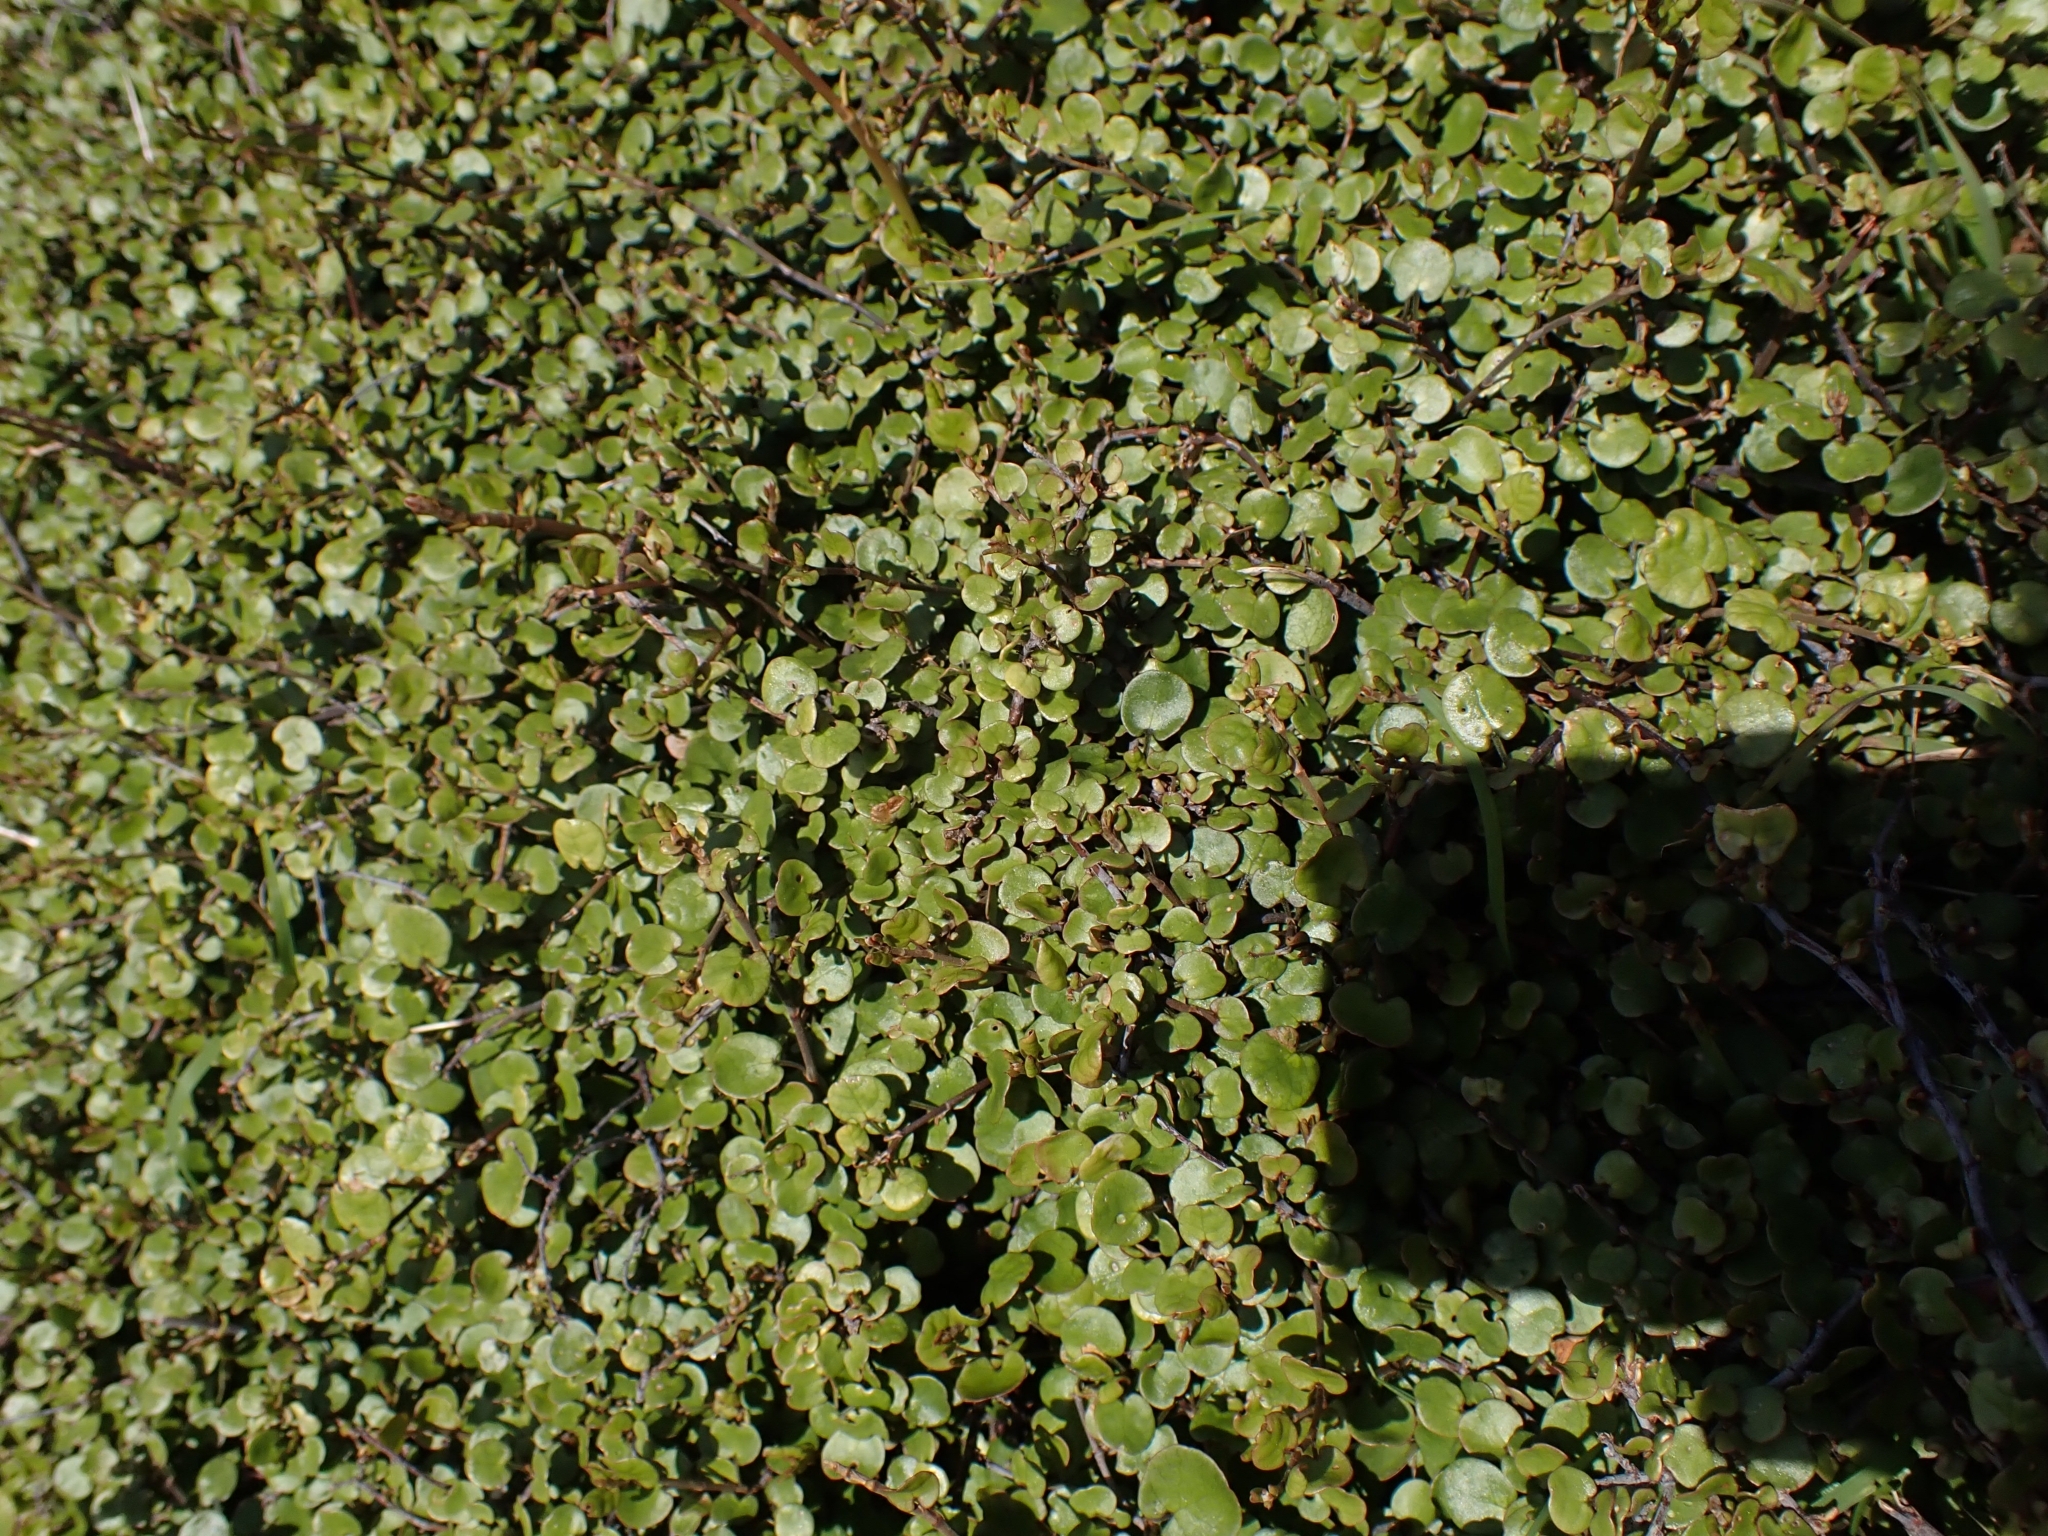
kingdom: Plantae
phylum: Tracheophyta
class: Magnoliopsida
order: Caryophyllales
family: Polygonaceae
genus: Muehlenbeckia
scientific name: Muehlenbeckia complexa
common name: Wireplant
